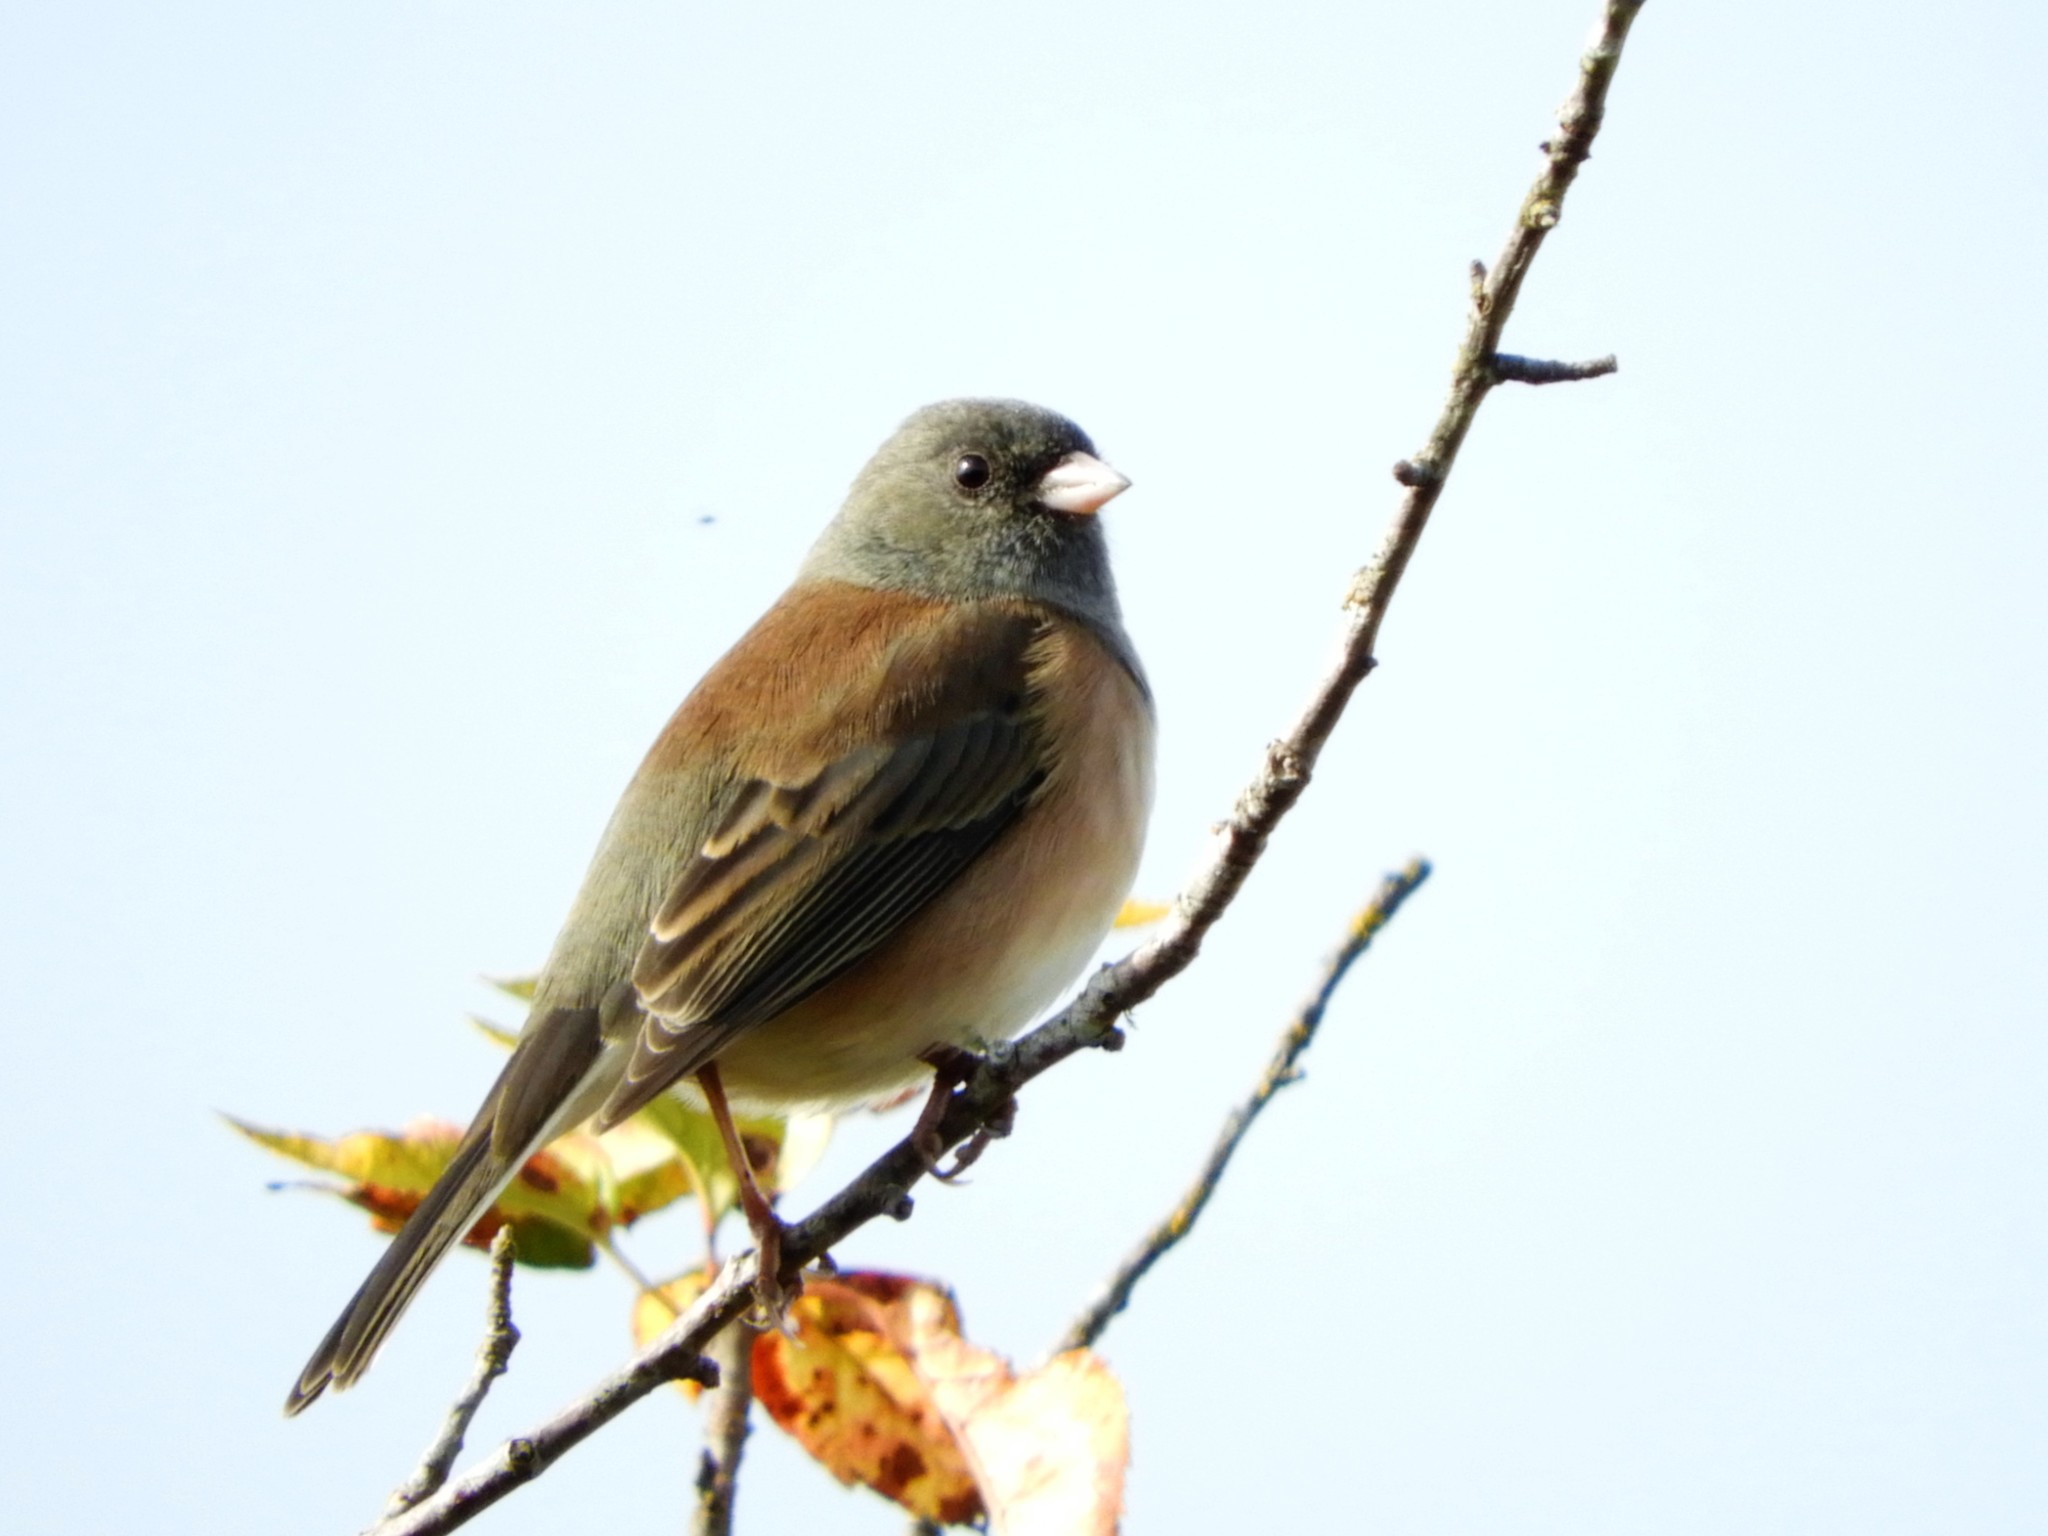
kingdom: Animalia
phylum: Chordata
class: Aves
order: Passeriformes
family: Passerellidae
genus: Junco
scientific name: Junco hyemalis
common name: Dark-eyed junco
